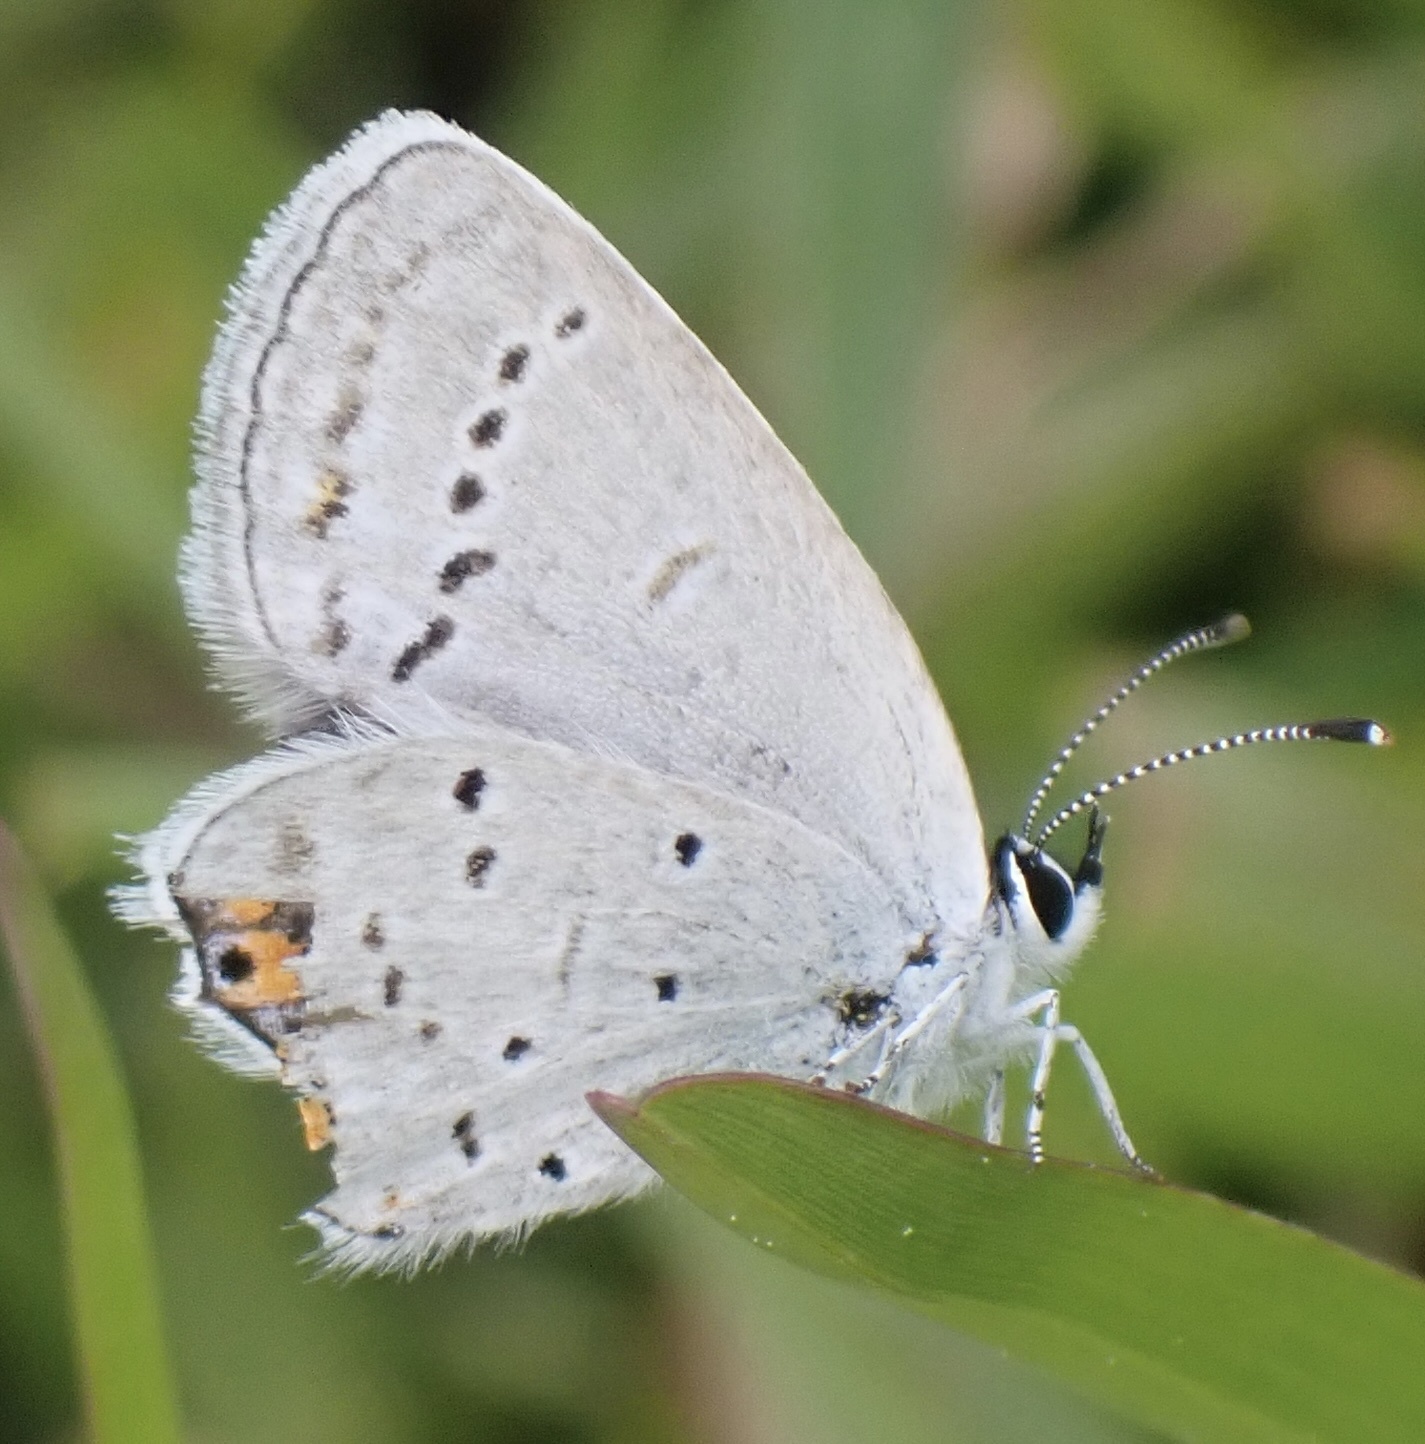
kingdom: Animalia
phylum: Arthropoda
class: Insecta
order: Lepidoptera
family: Lycaenidae
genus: Elkalyce
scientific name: Elkalyce comyntas
